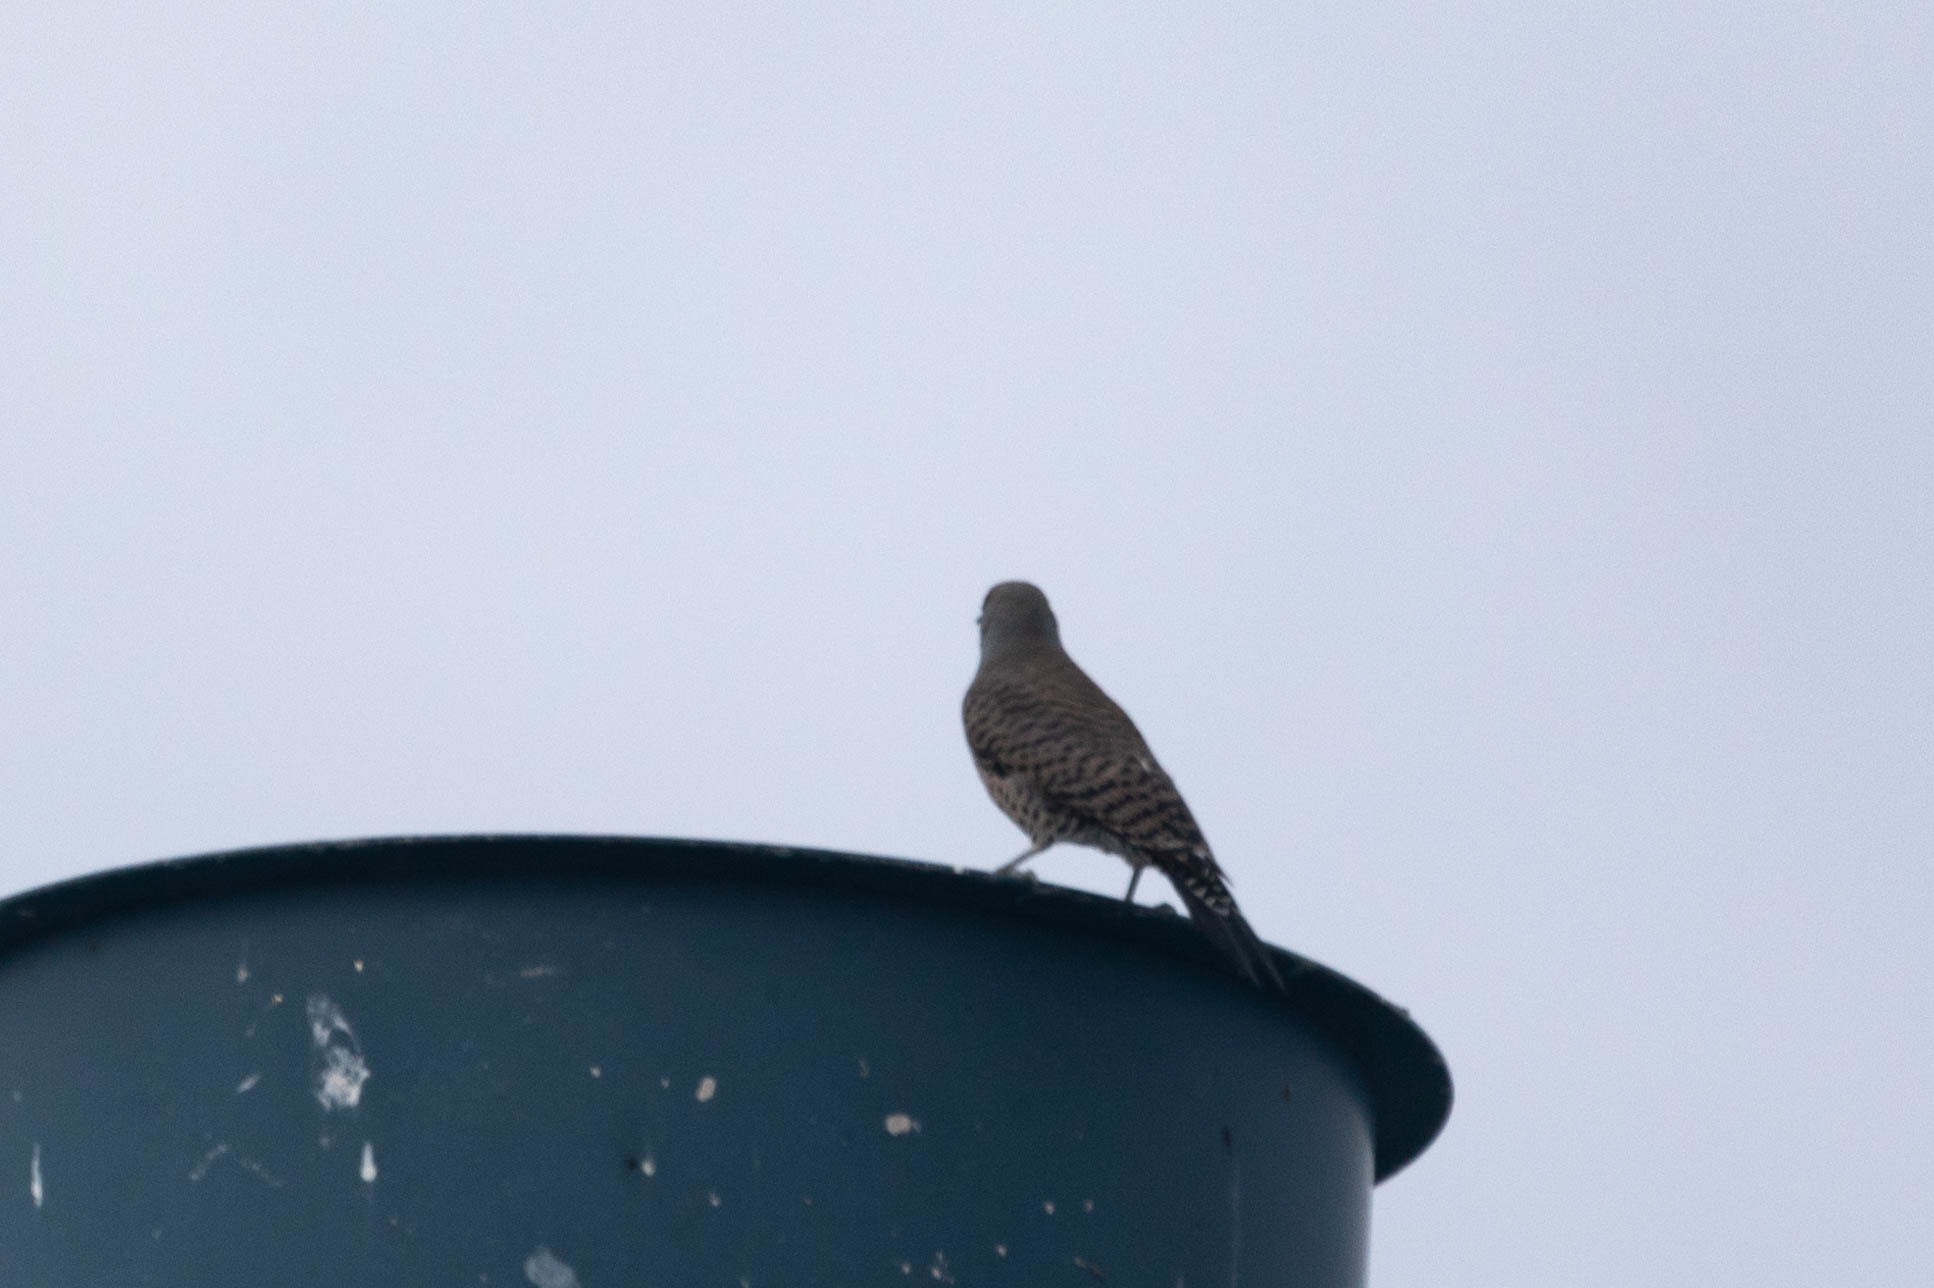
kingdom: Animalia
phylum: Chordata
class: Aves
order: Piciformes
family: Picidae
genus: Colaptes
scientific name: Colaptes auratus
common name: Northern flicker
